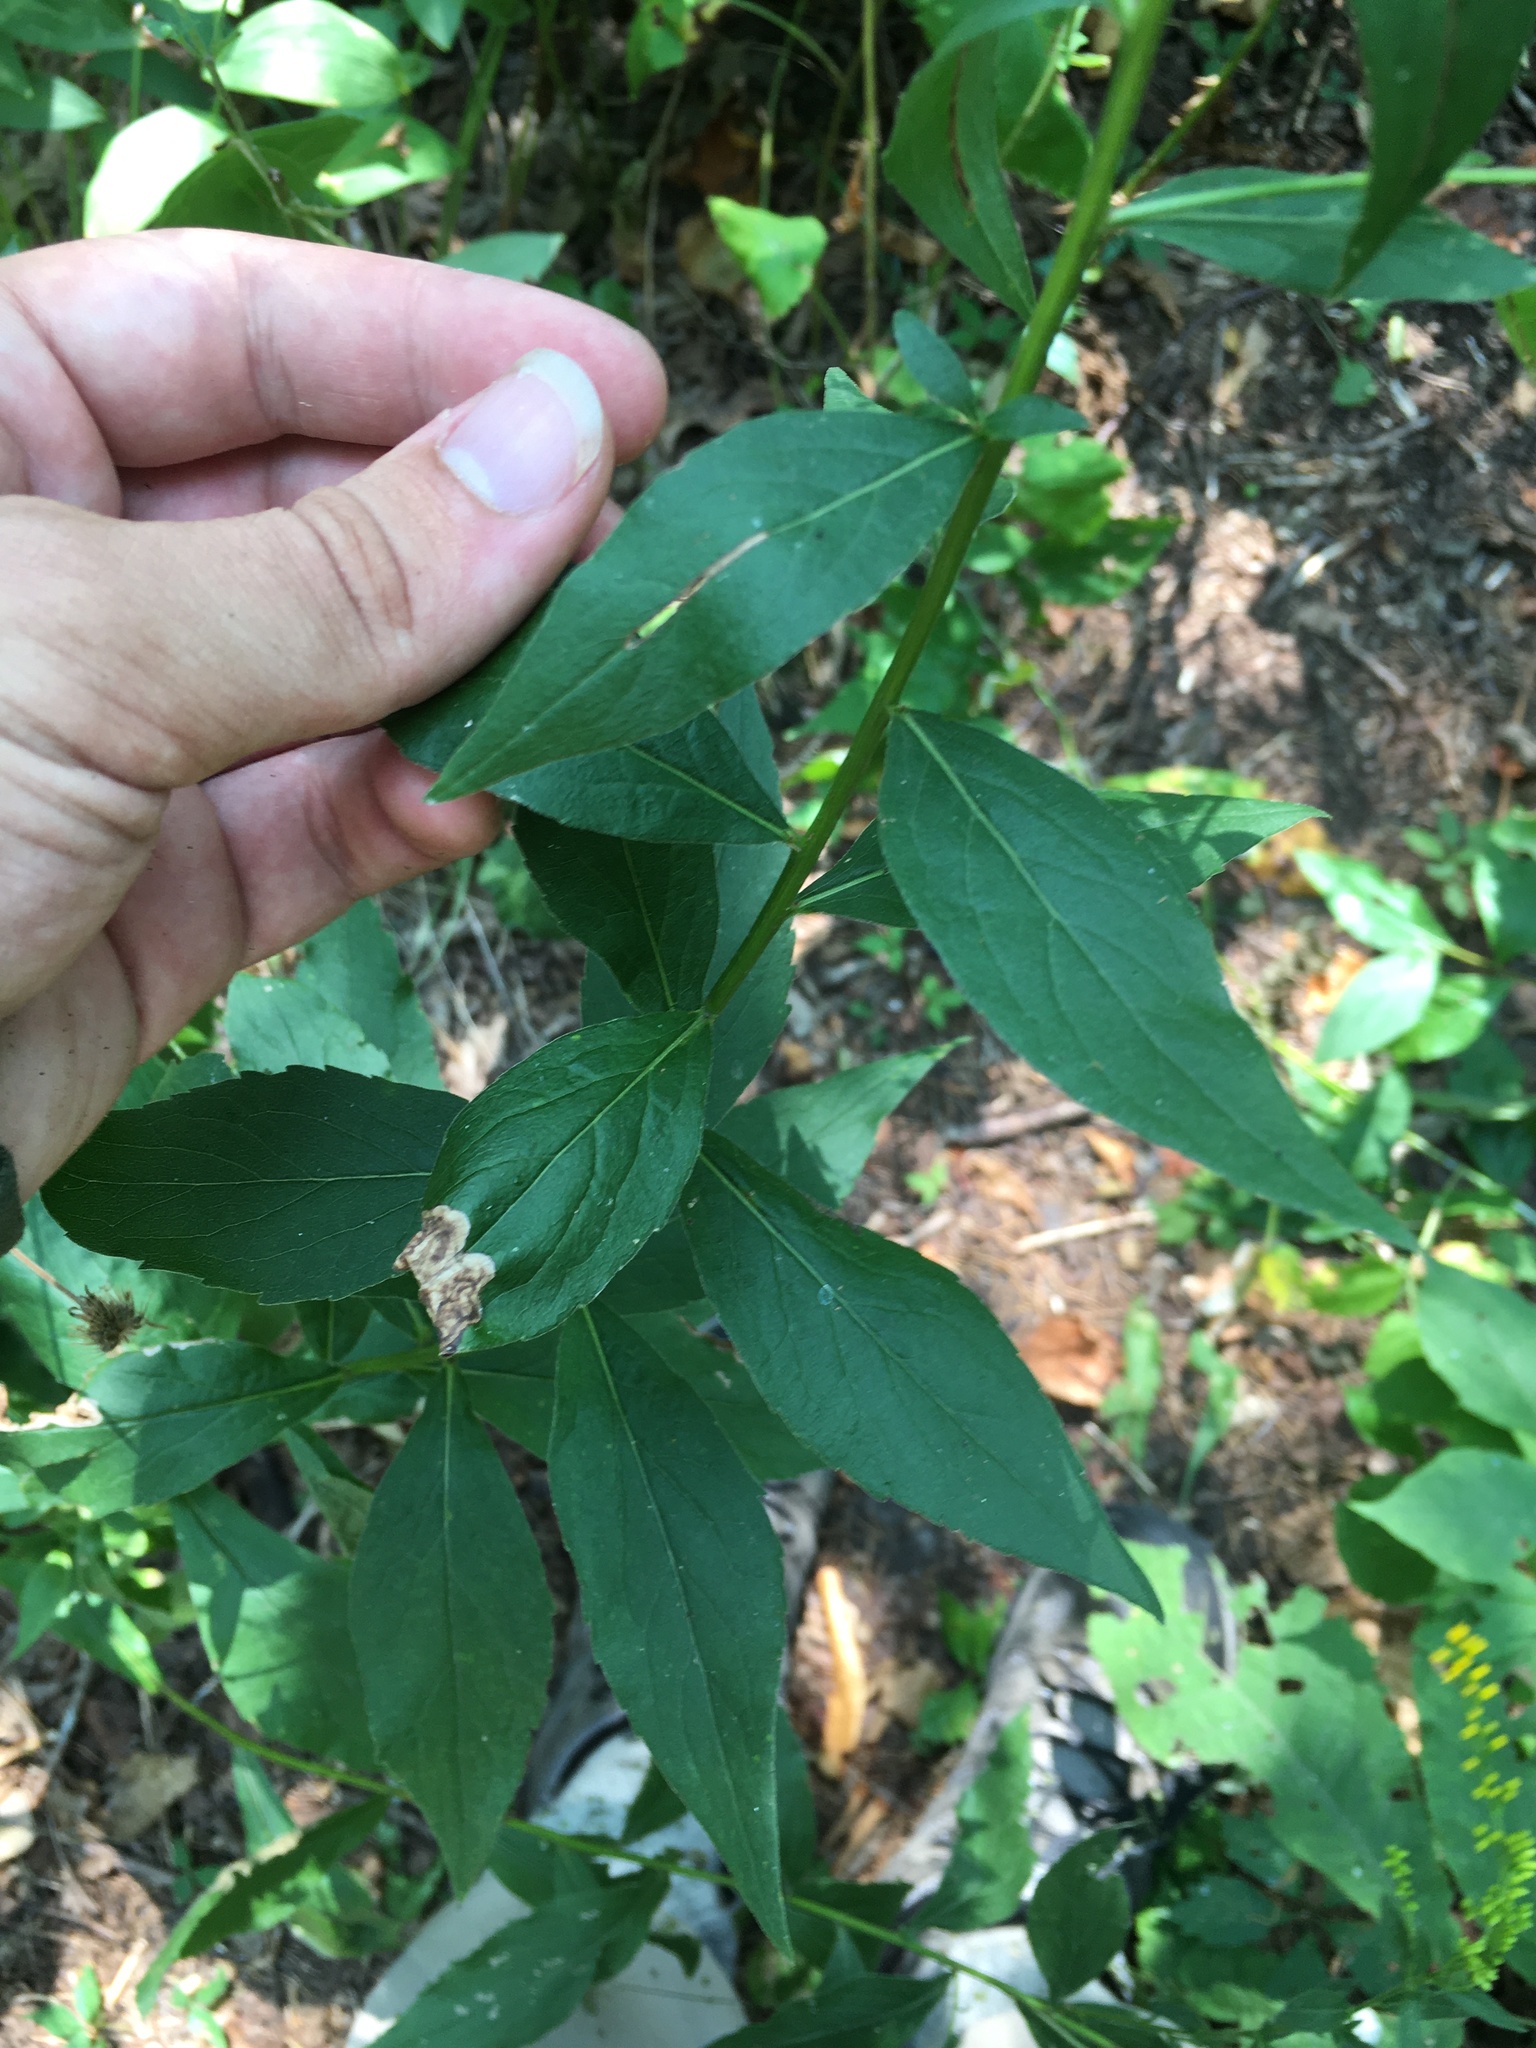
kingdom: Plantae
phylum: Tracheophyta
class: Magnoliopsida
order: Asterales
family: Asteraceae
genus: Solidago
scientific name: Solidago ulmifolia
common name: Elm-leaf goldenrod
